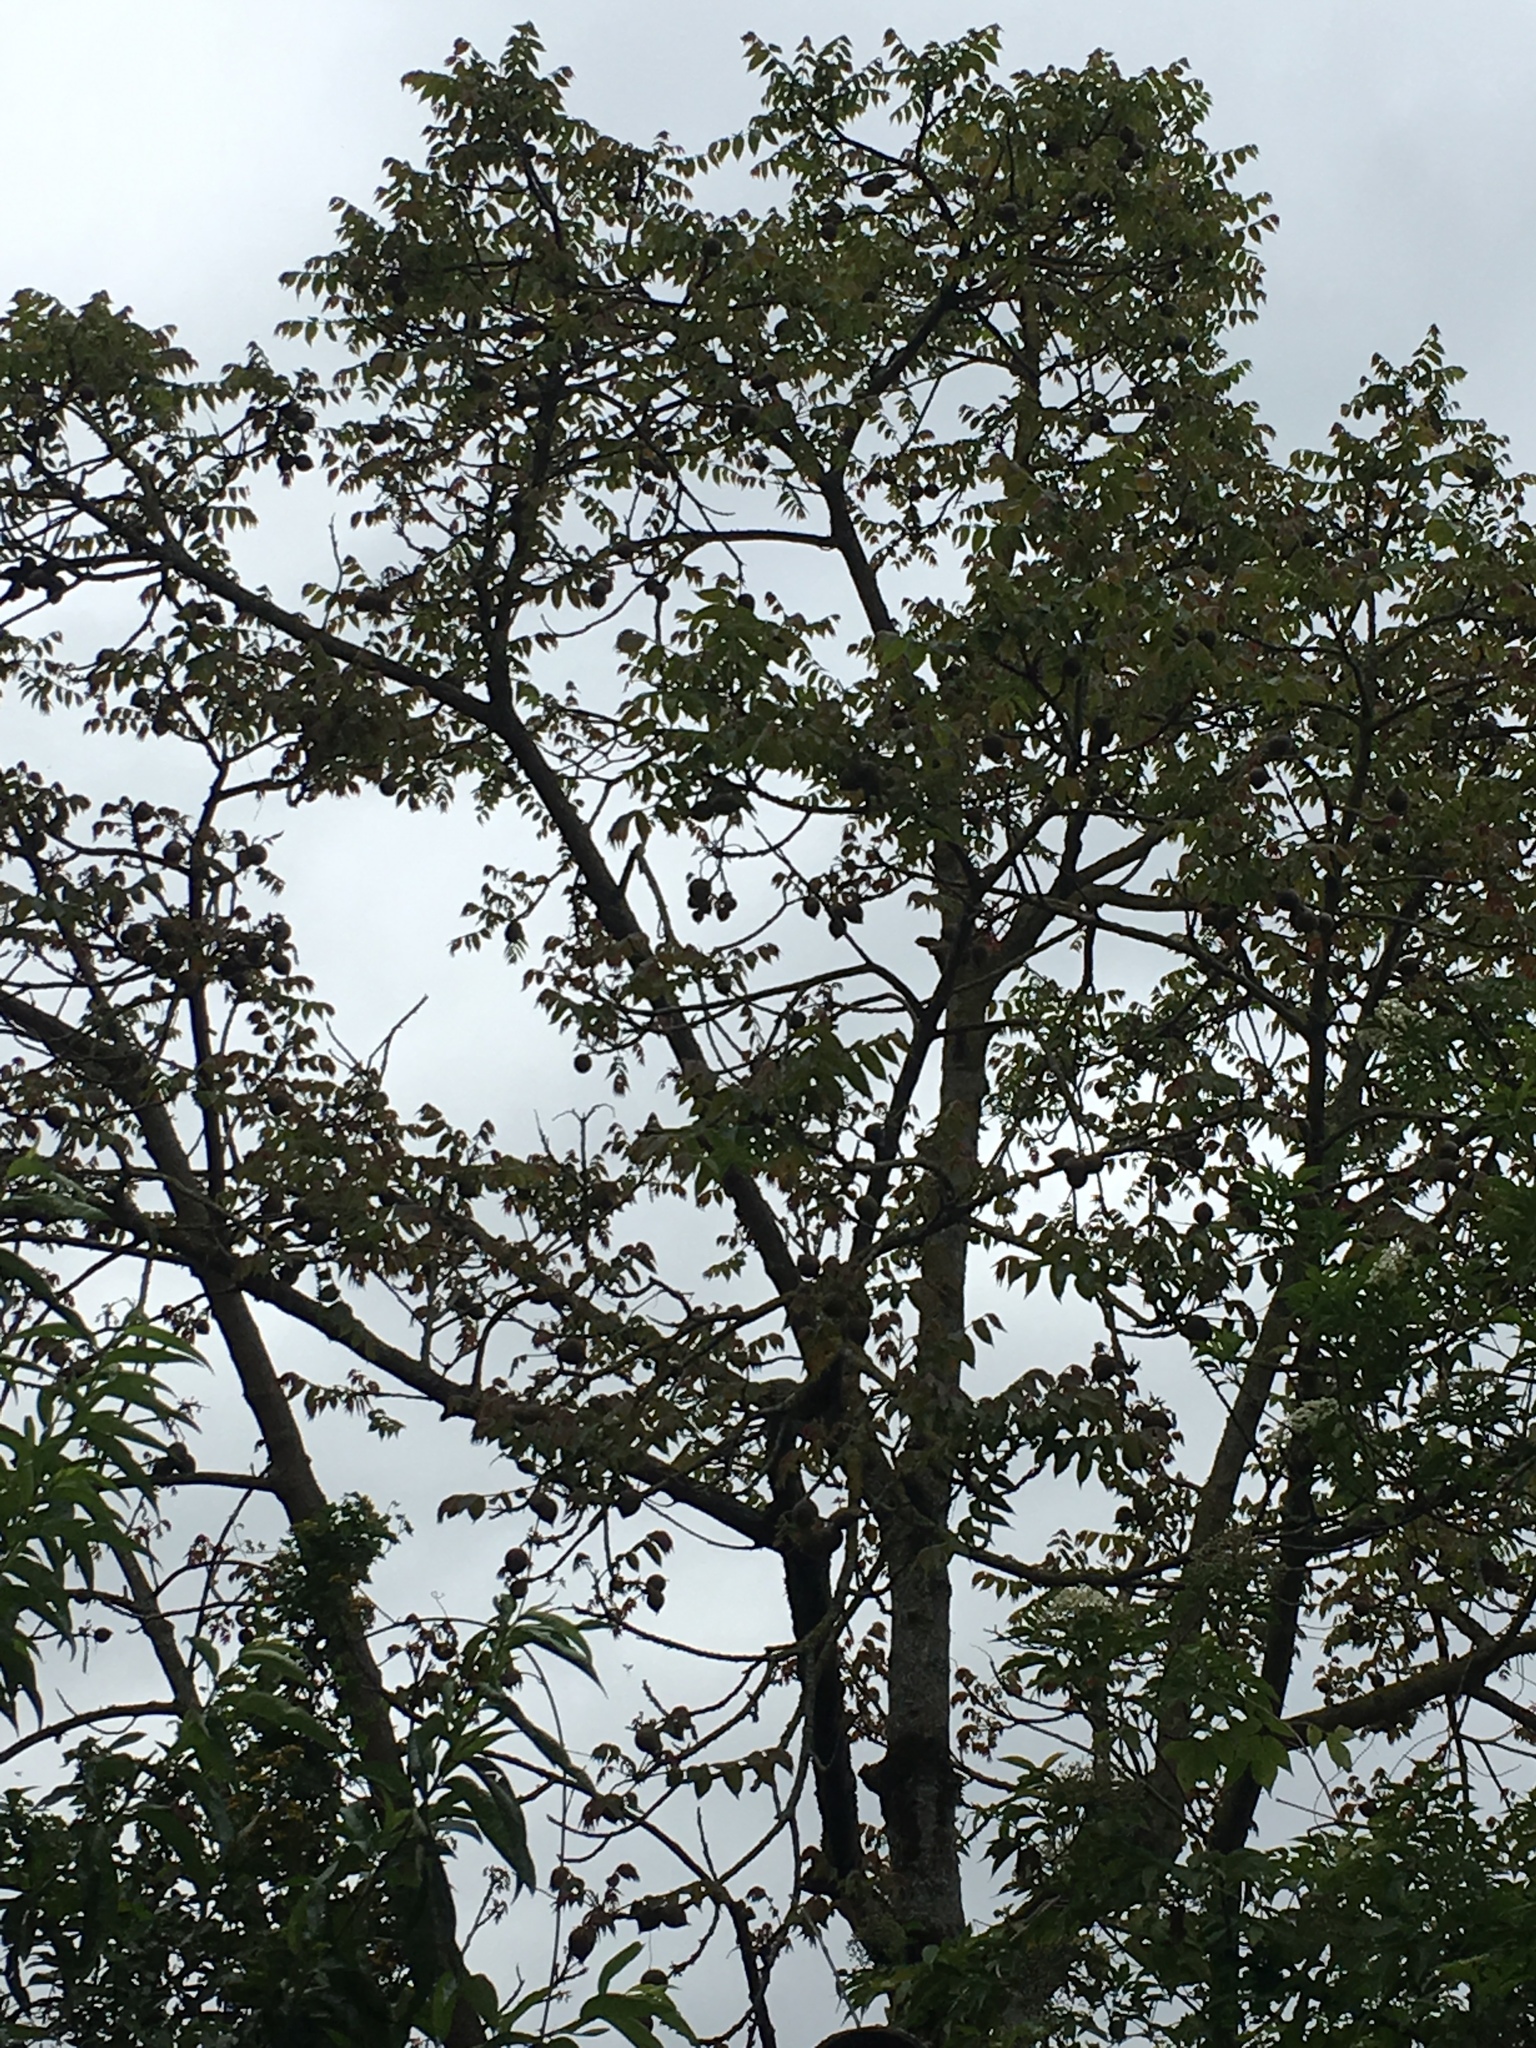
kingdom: Plantae
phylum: Tracheophyta
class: Magnoliopsida
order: Fagales
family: Juglandaceae
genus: Juglans
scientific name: Juglans neotropica
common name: Andean walnut
